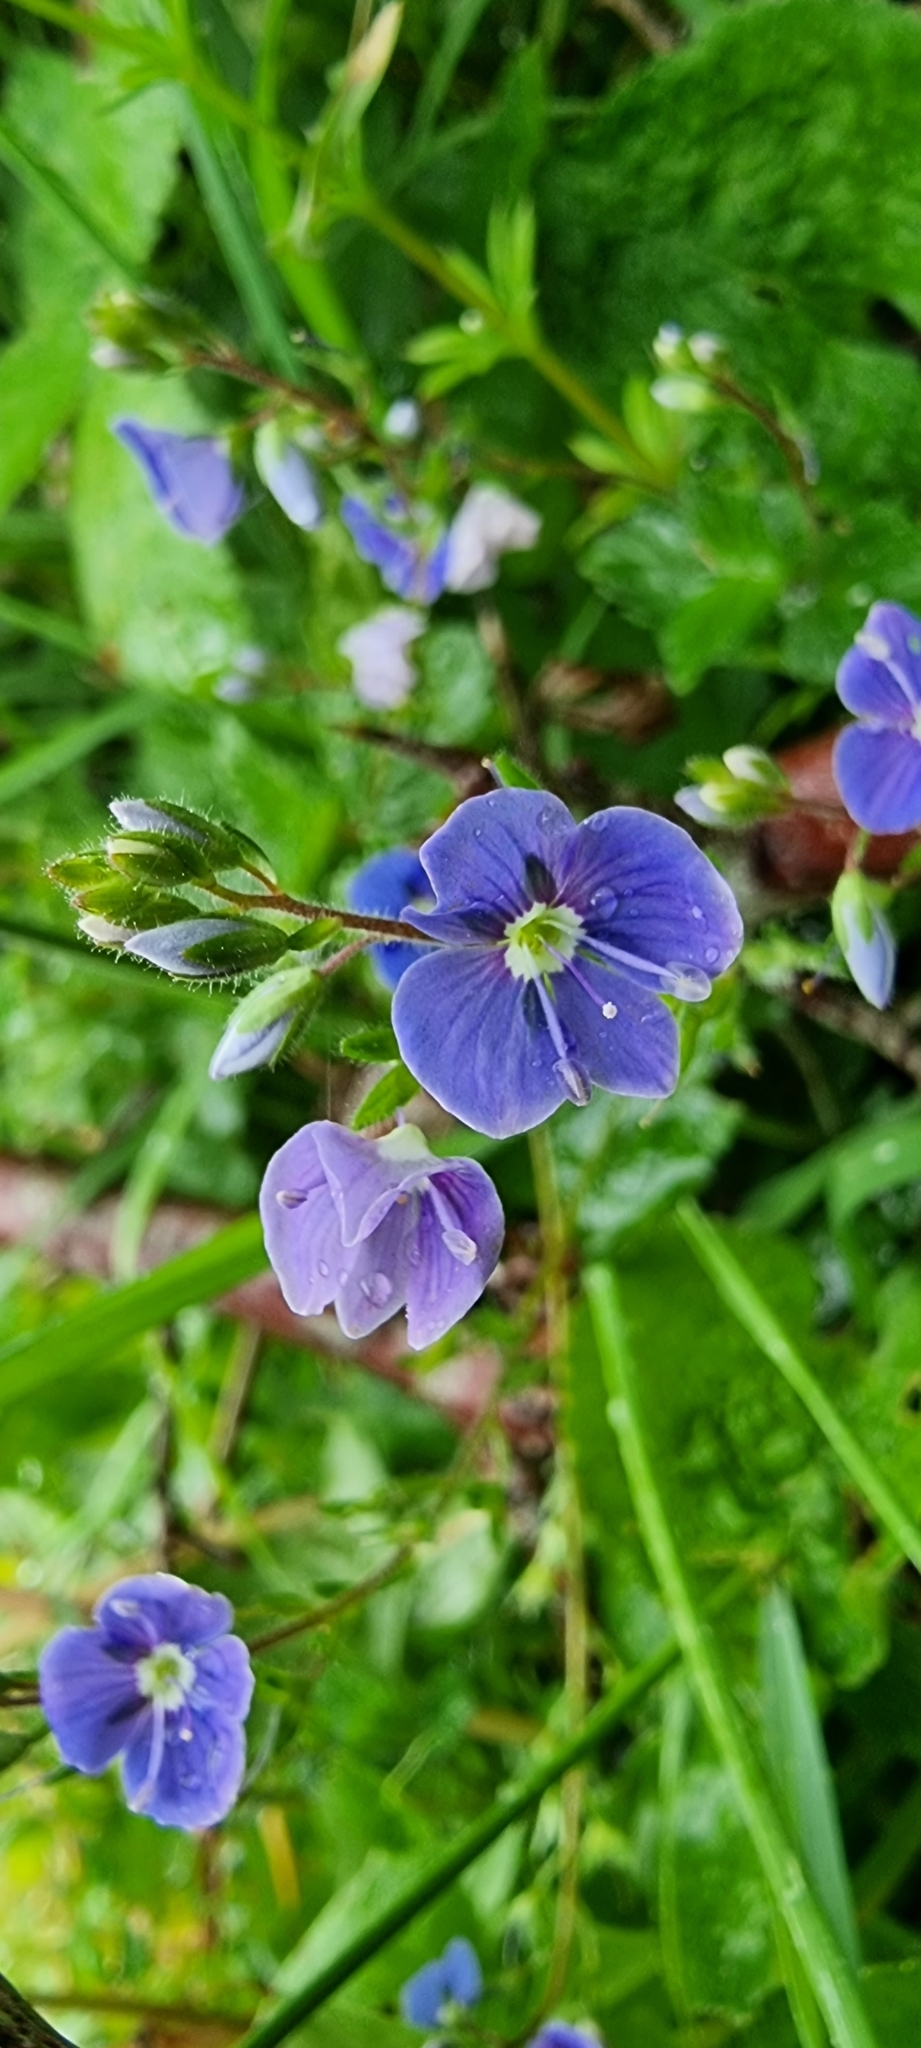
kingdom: Plantae
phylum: Tracheophyta
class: Magnoliopsida
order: Lamiales
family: Plantaginaceae
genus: Veronica
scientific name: Veronica chamaedrys
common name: Germander speedwell
